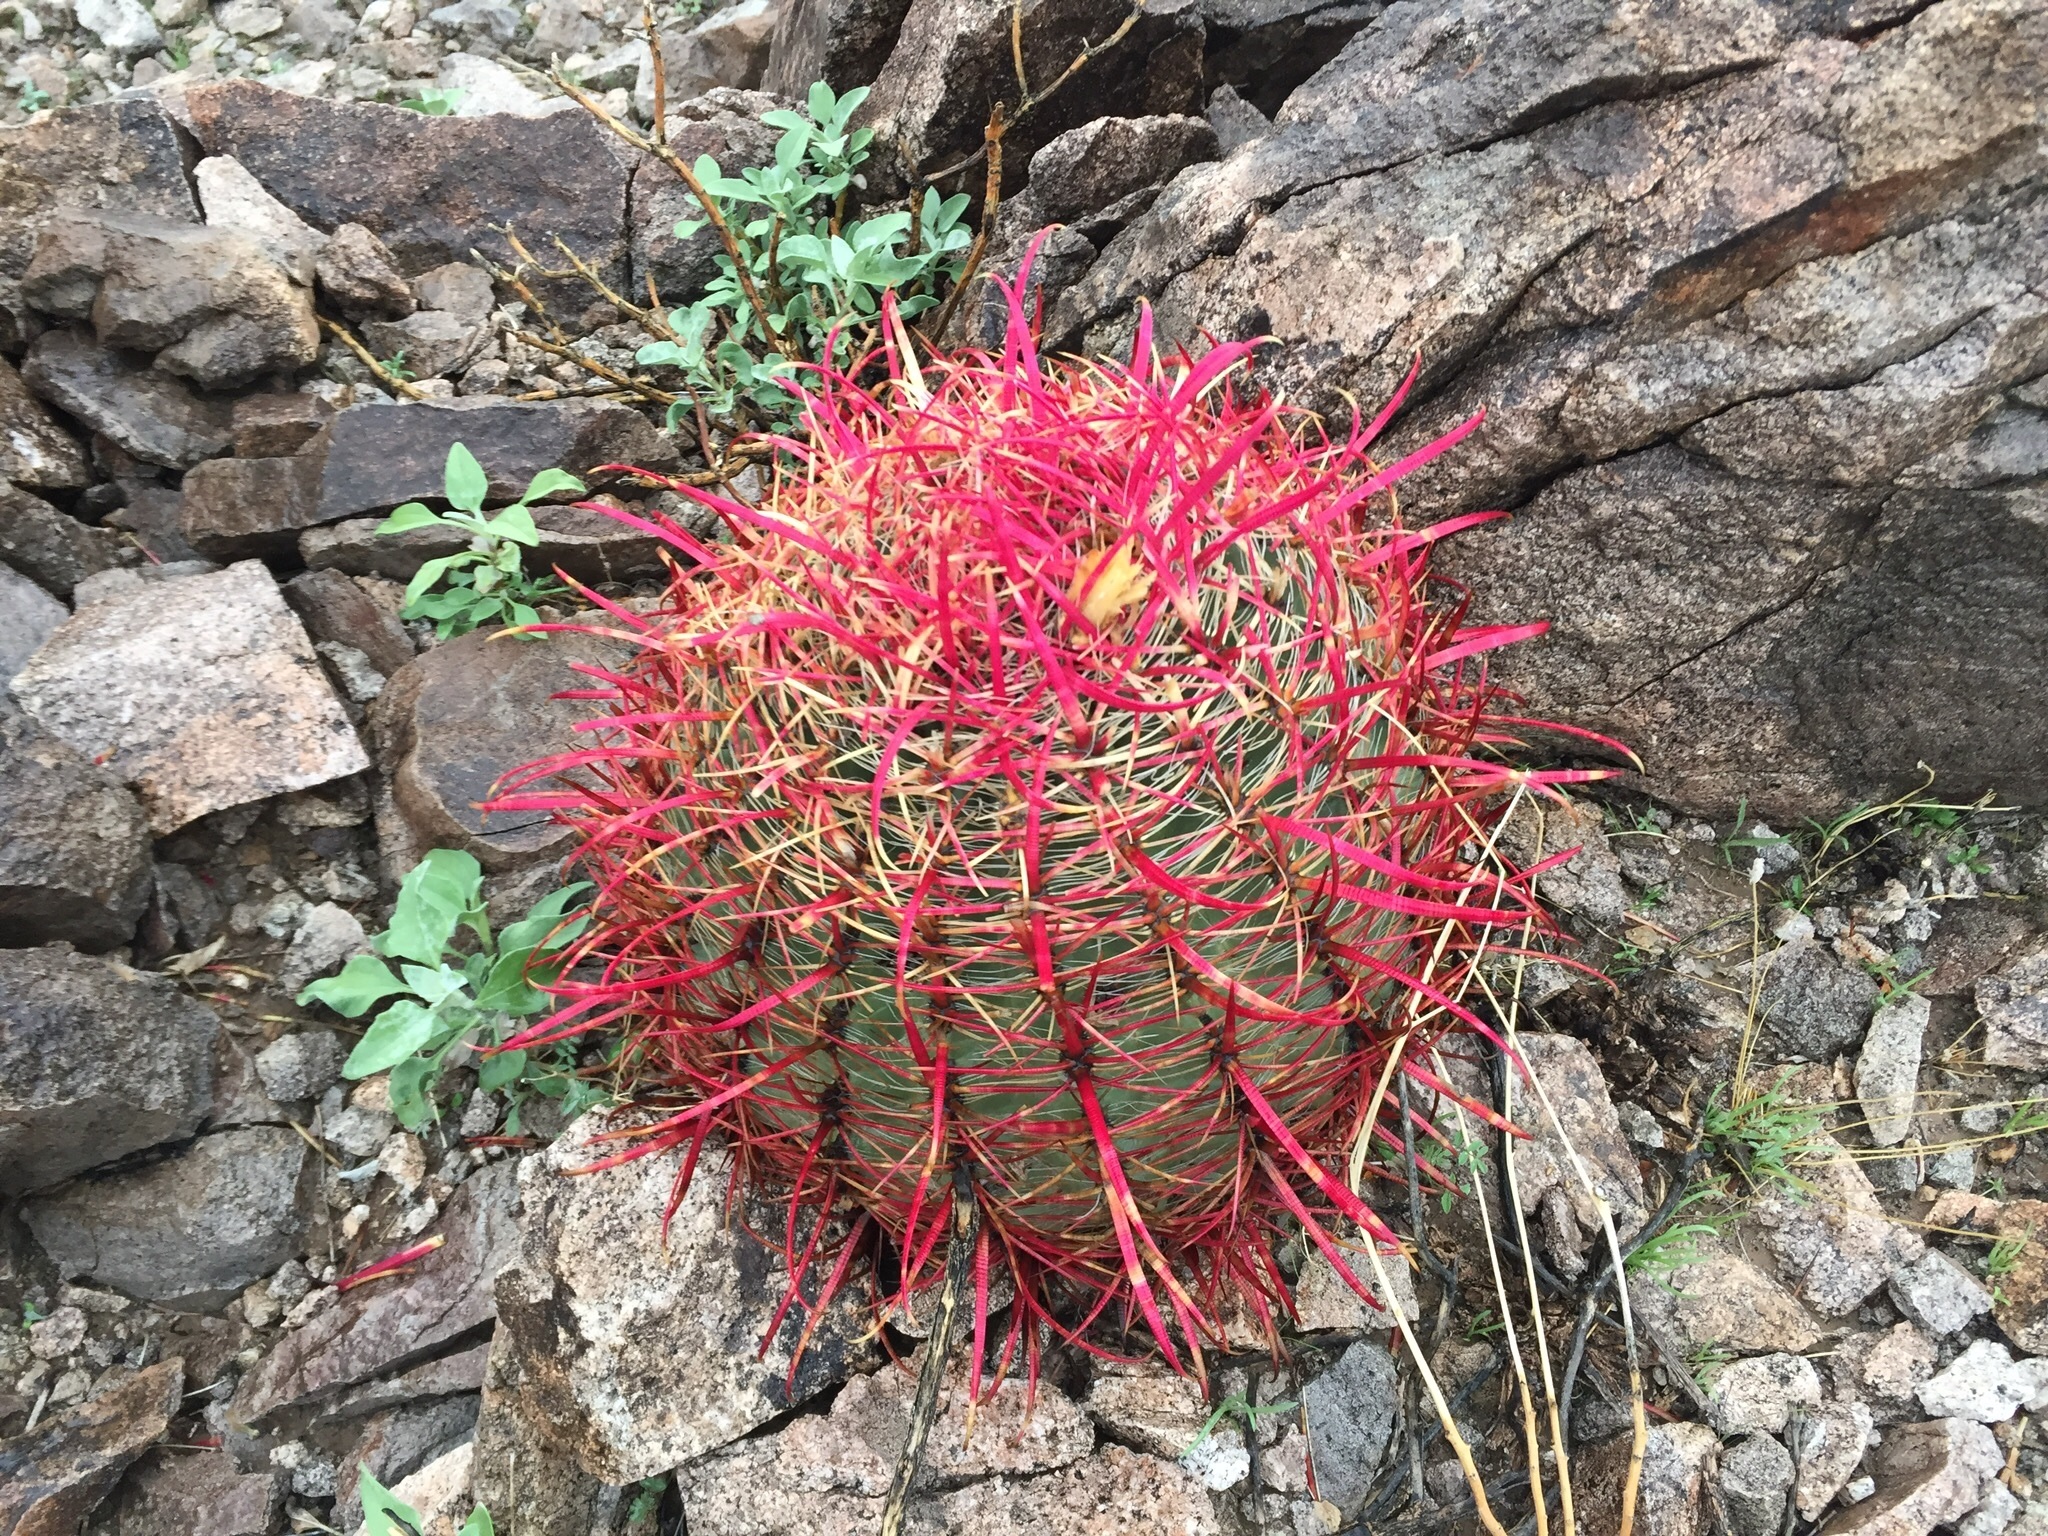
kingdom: Plantae
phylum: Tracheophyta
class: Magnoliopsida
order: Caryophyllales
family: Cactaceae
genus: Ferocactus
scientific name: Ferocactus cylindraceus
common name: California barrel cactus
